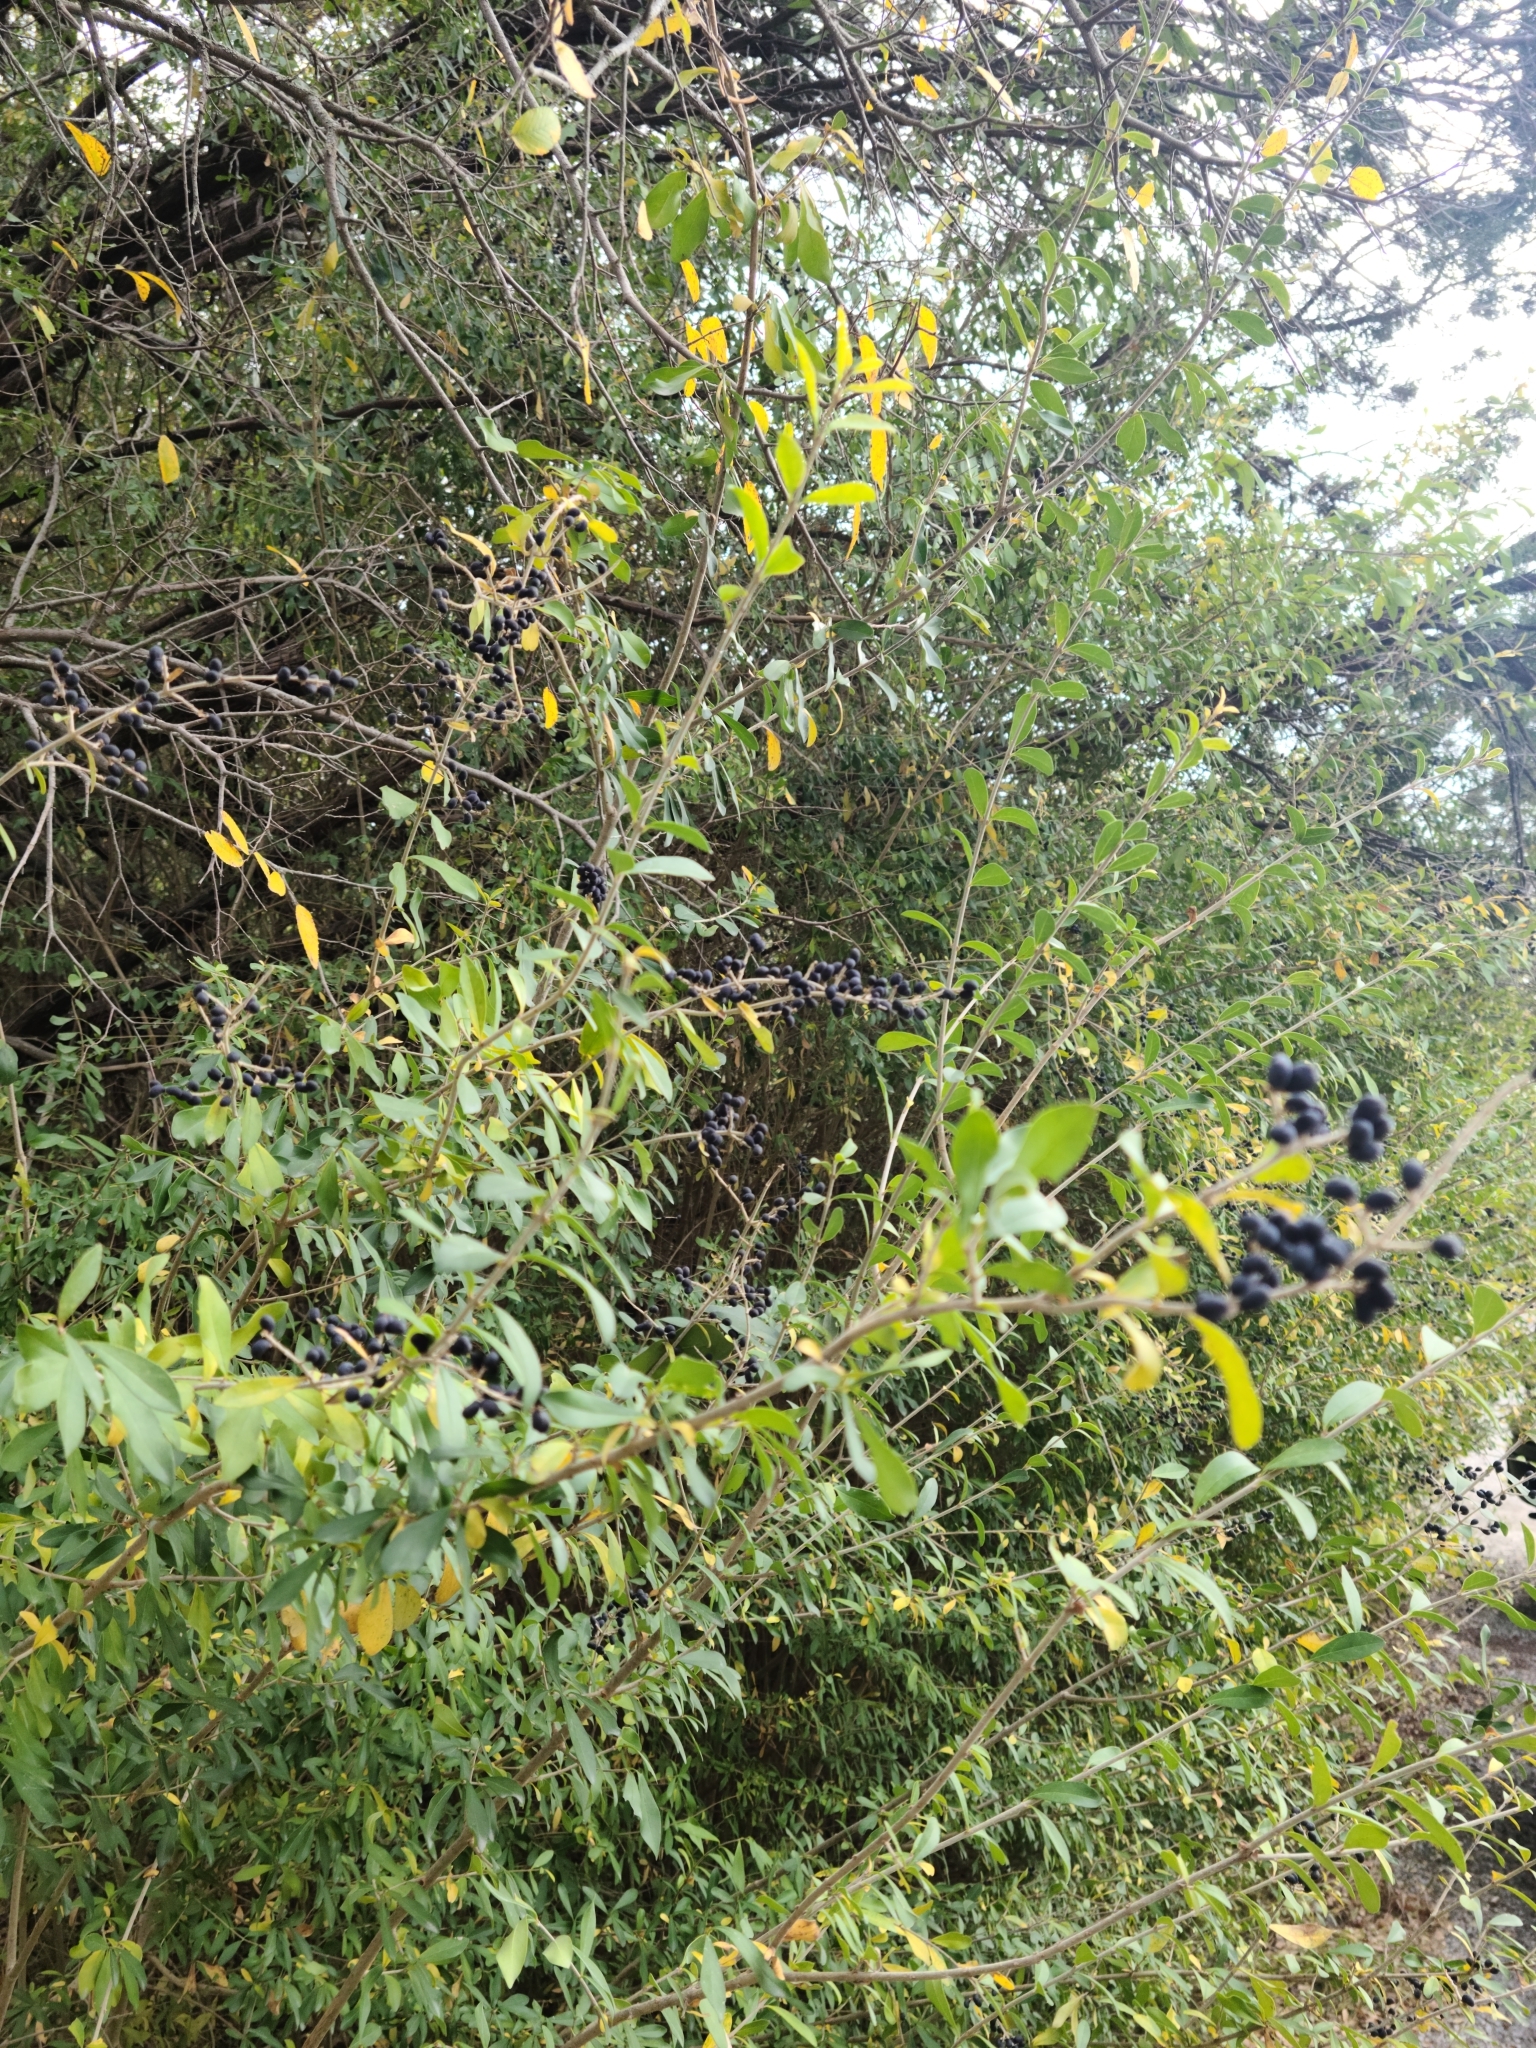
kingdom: Plantae
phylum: Tracheophyta
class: Magnoliopsida
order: Lamiales
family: Oleaceae
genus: Ligustrum
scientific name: Ligustrum quihoui
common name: Waxyleaf privet
